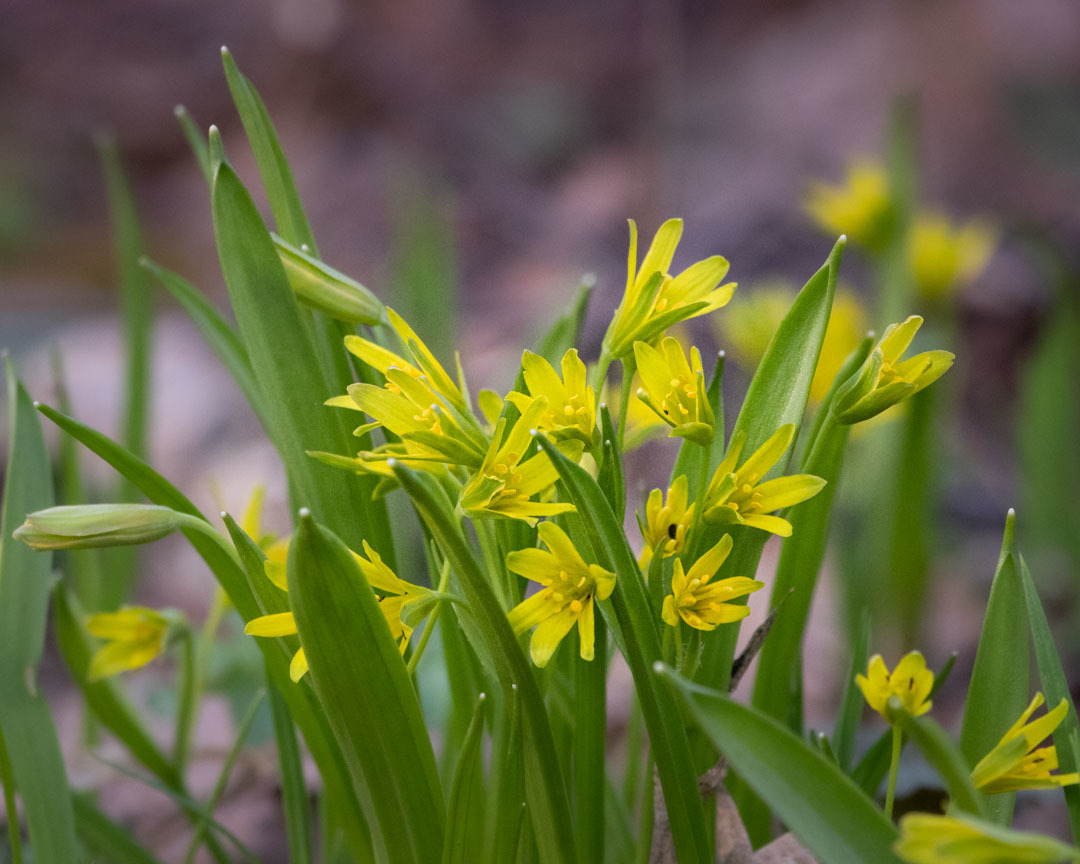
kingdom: Plantae
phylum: Tracheophyta
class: Liliopsida
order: Liliales
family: Liliaceae
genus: Gagea
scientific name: Gagea lutea
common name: Yellow star-of-bethlehem
